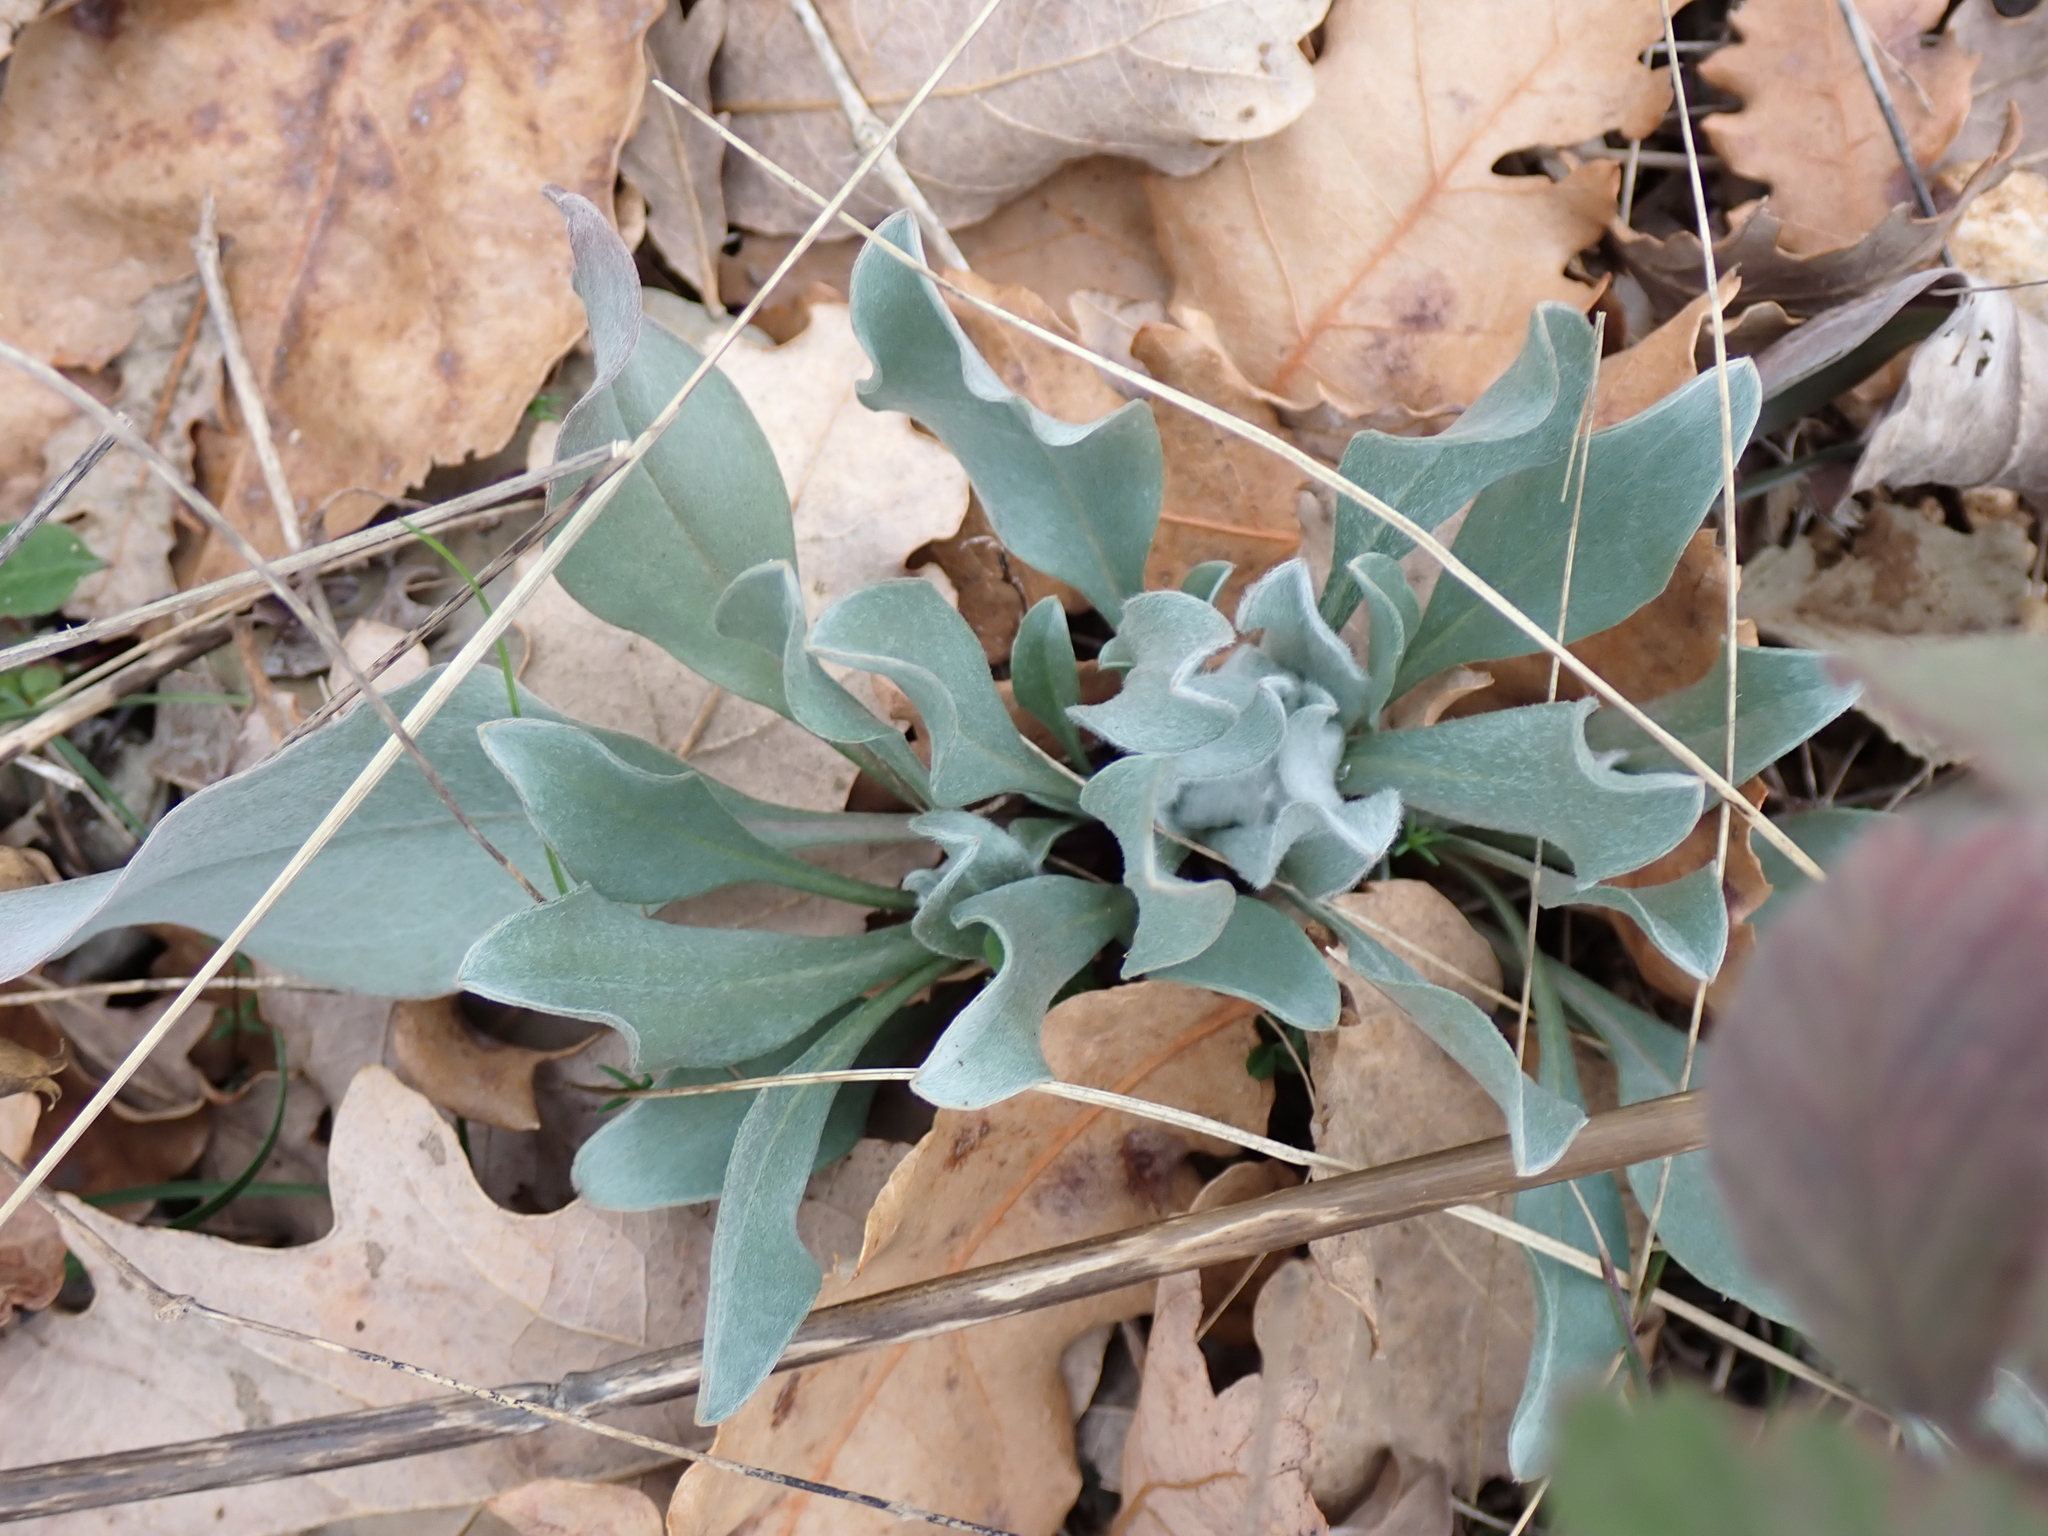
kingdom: Plantae
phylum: Tracheophyta
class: Magnoliopsida
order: Boraginales
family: Boraginaceae
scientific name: Boraginaceae
